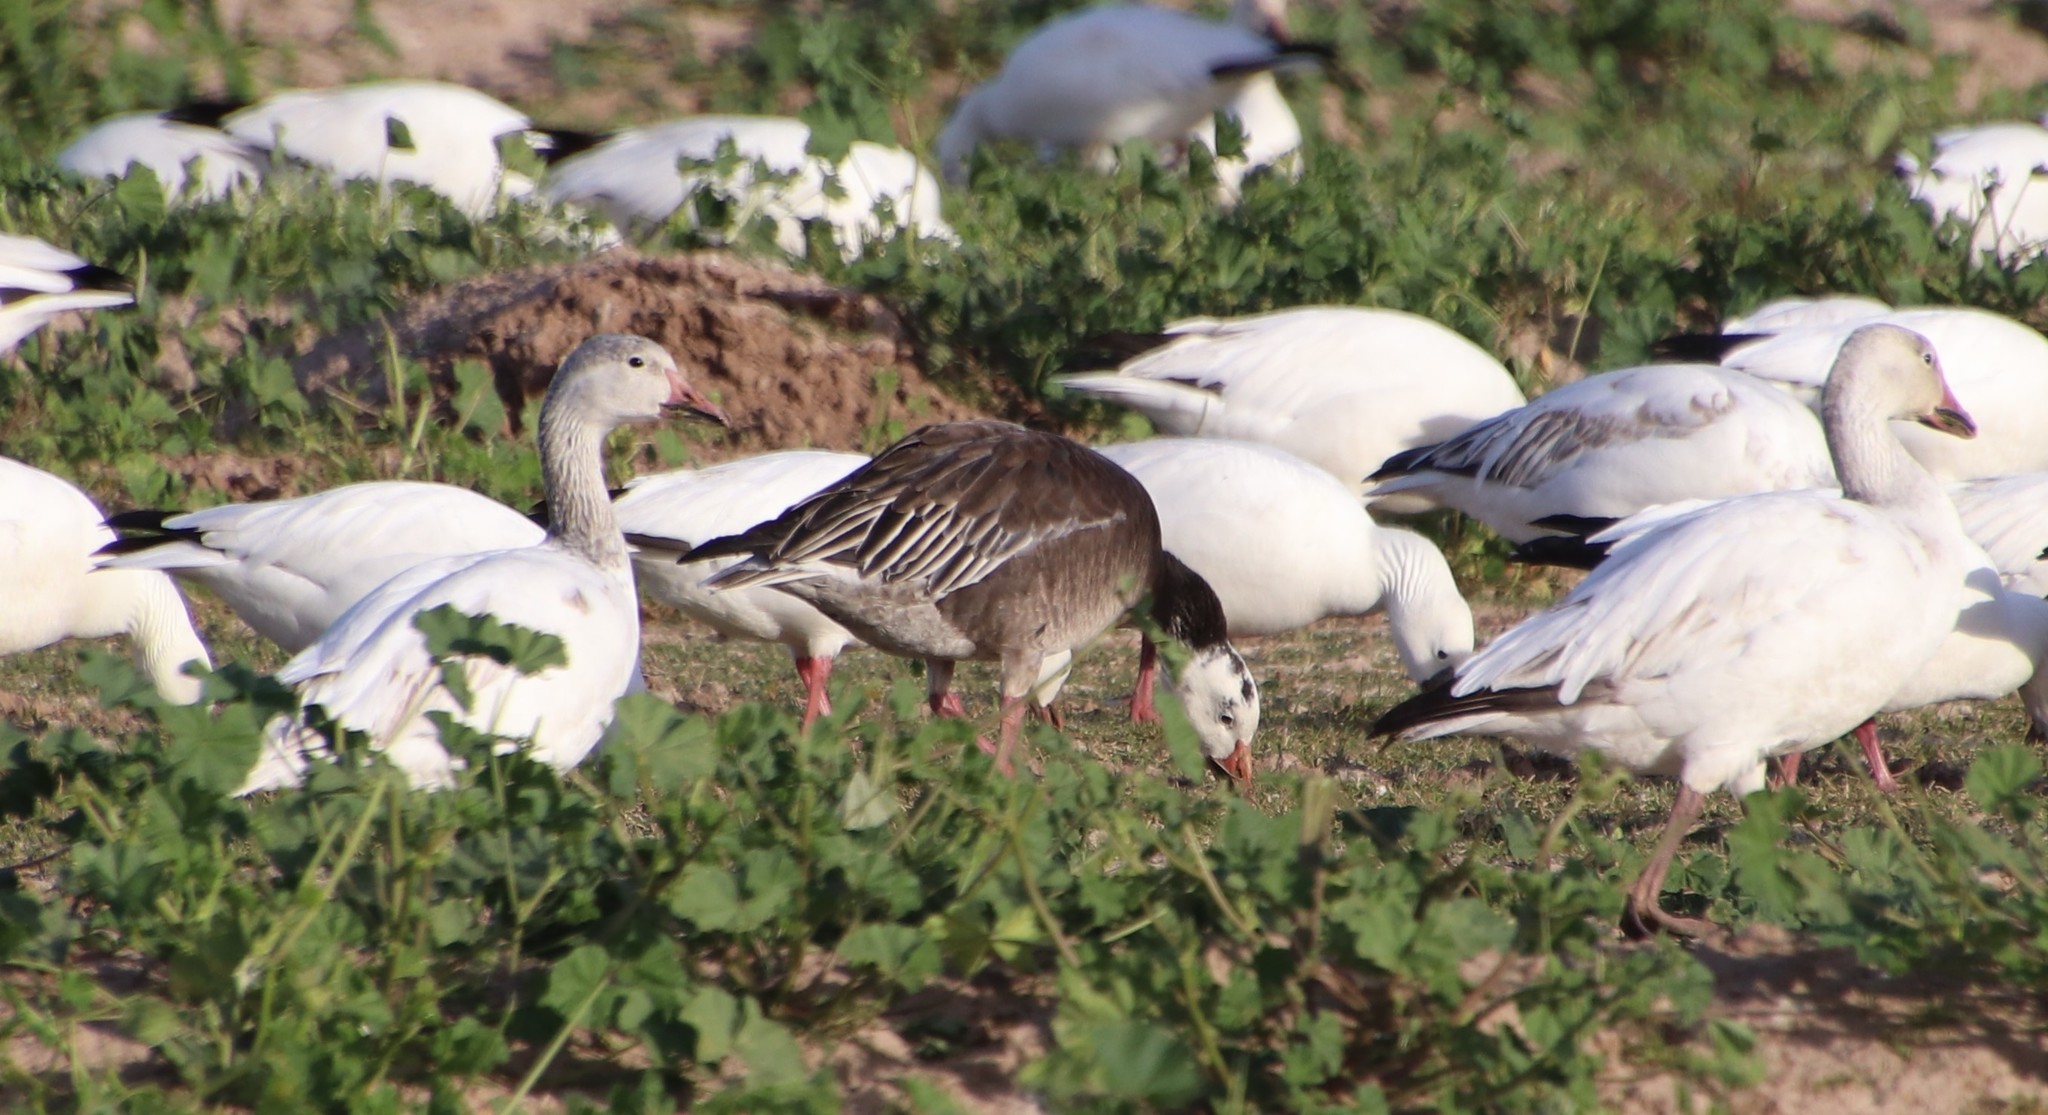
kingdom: Animalia
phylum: Chordata
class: Aves
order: Anseriformes
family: Anatidae
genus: Anser
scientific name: Anser caerulescens
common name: Snow goose
